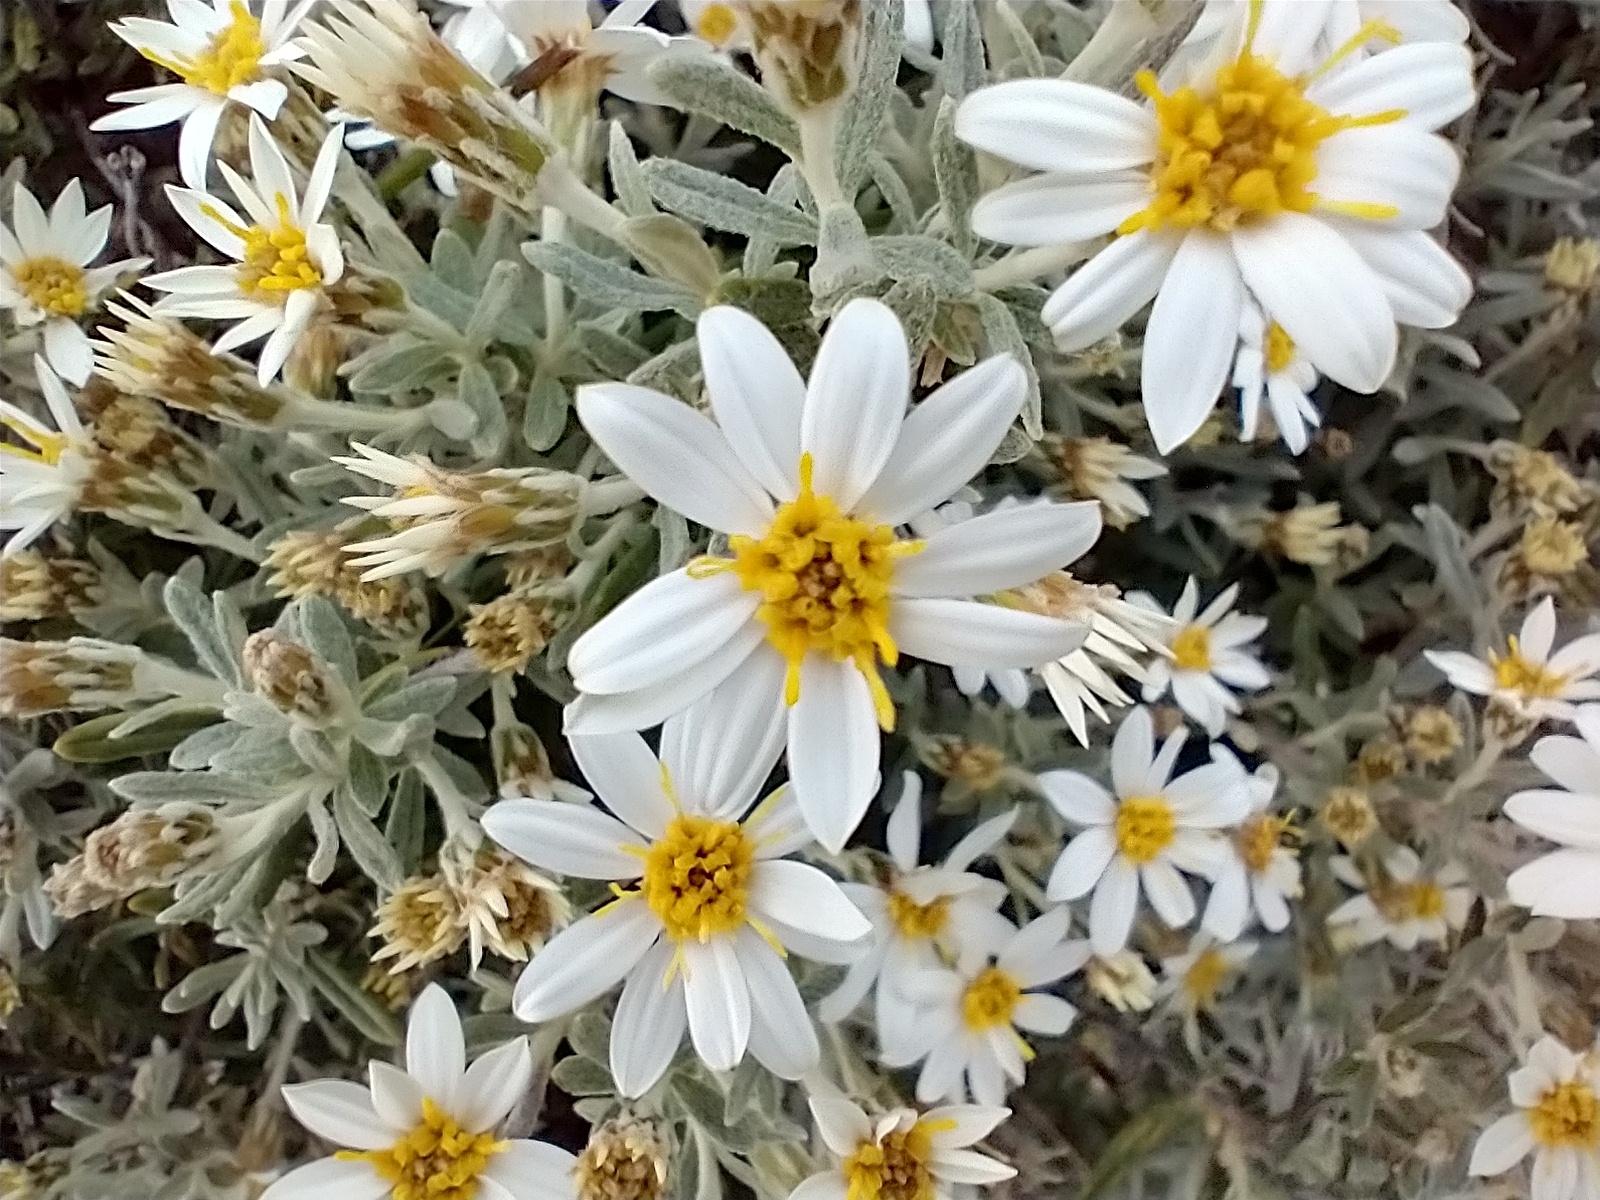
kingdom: Plantae
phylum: Tracheophyta
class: Magnoliopsida
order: Asterales
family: Asteraceae
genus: Chiliotrichum
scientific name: Chiliotrichum diffusum
